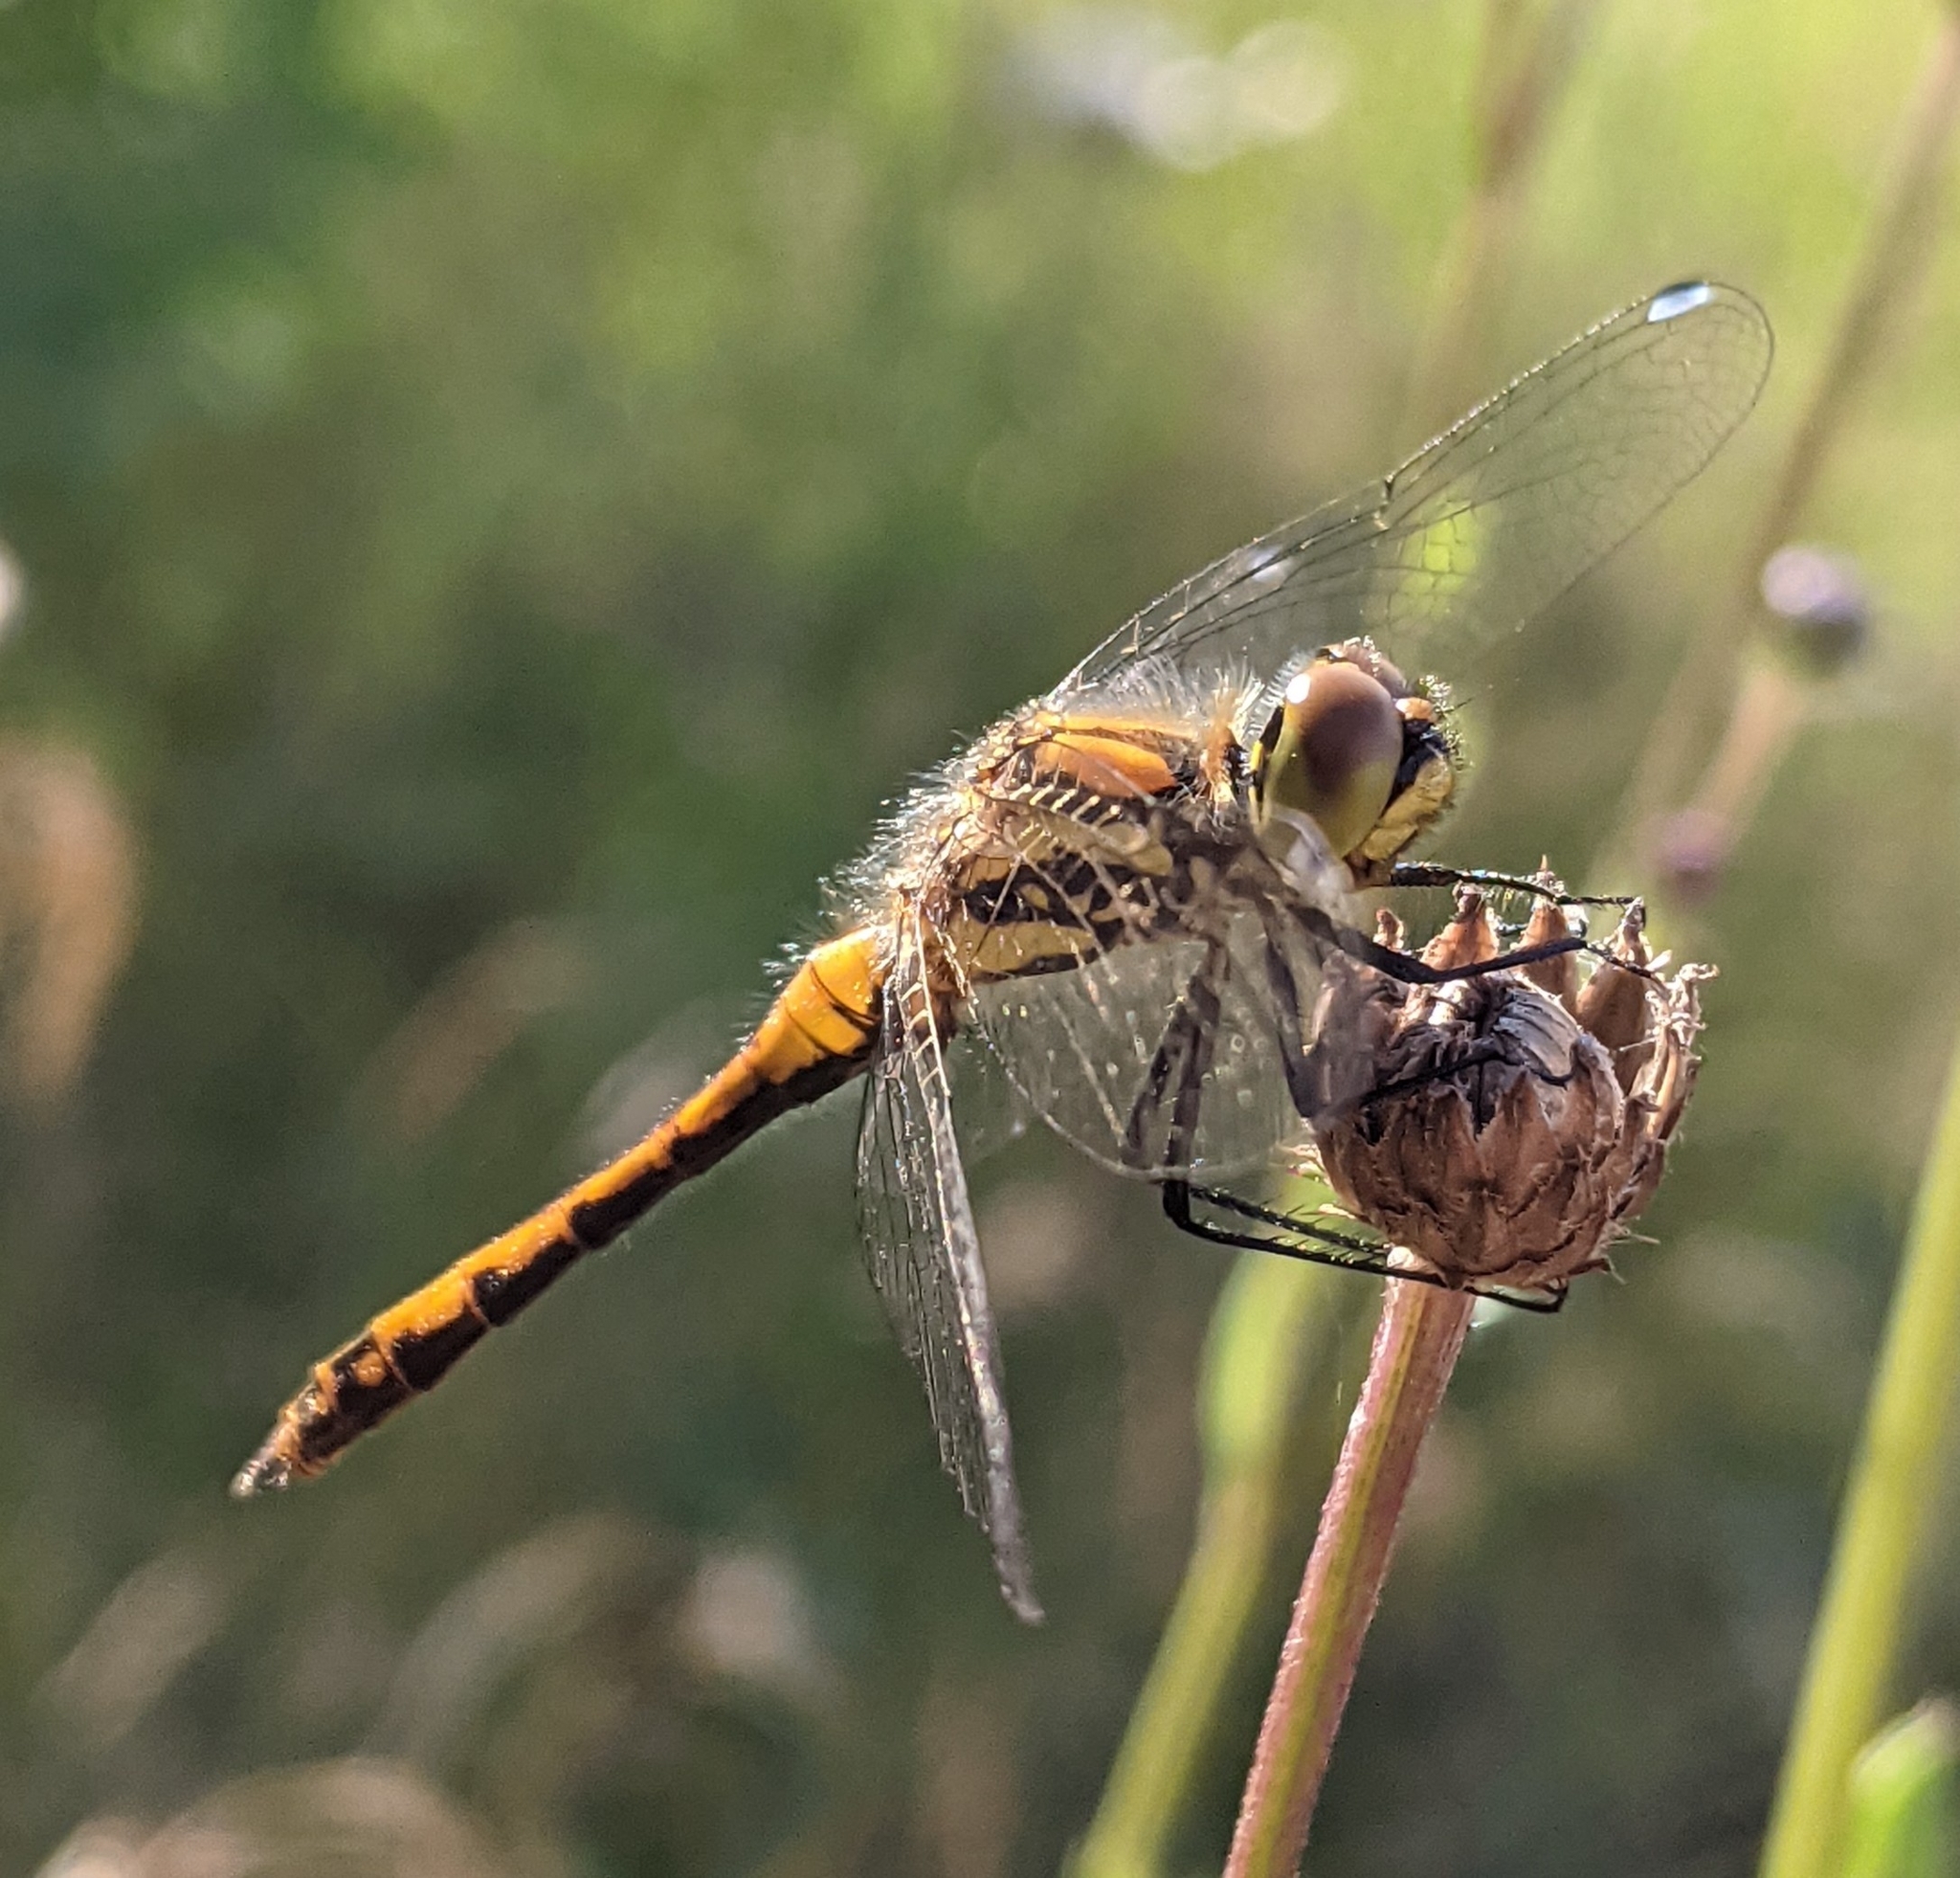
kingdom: Animalia
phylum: Arthropoda
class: Insecta
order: Odonata
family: Libellulidae
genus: Sympetrum
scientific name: Sympetrum danae
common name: Black darter
